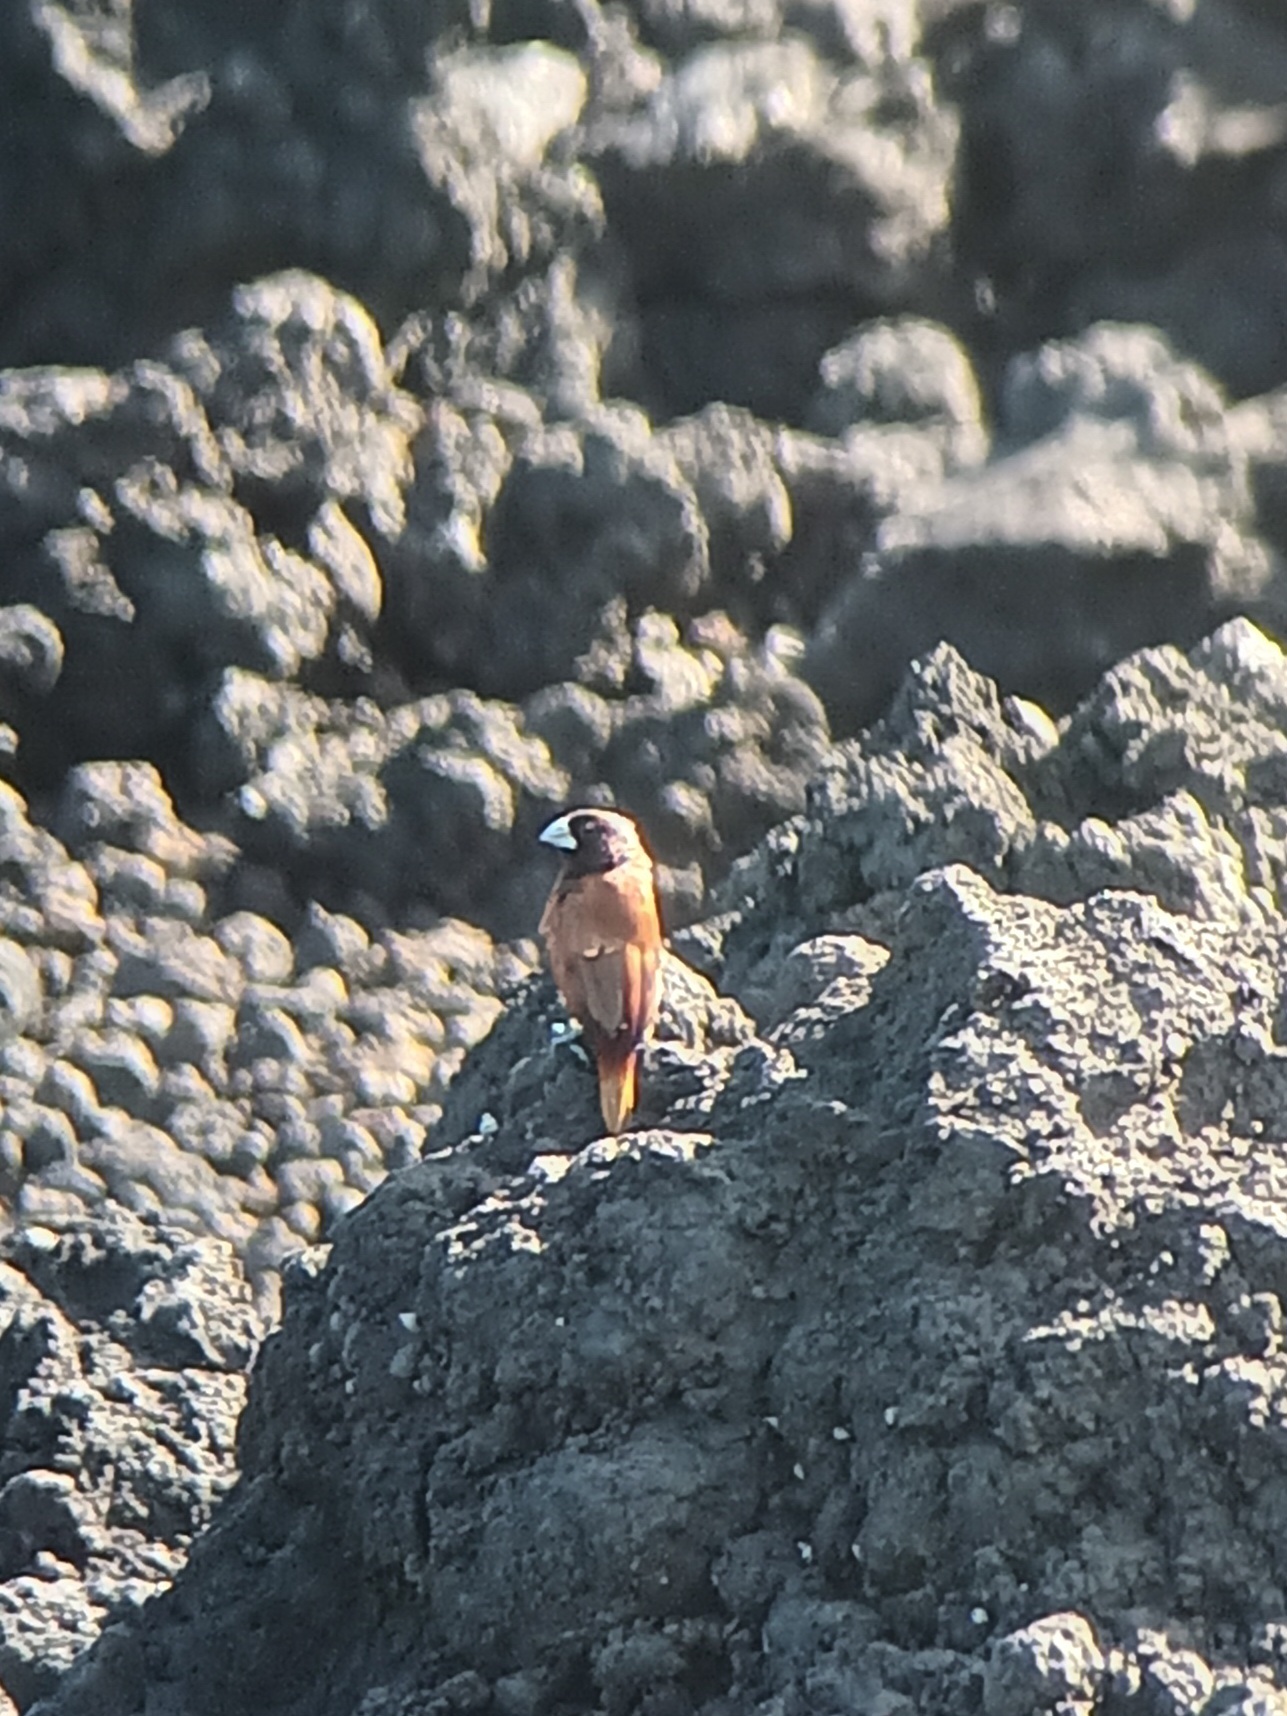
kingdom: Animalia
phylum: Chordata
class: Aves
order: Passeriformes
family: Estrildidae
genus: Lonchura
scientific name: Lonchura atricapilla
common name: Chestnut munia
